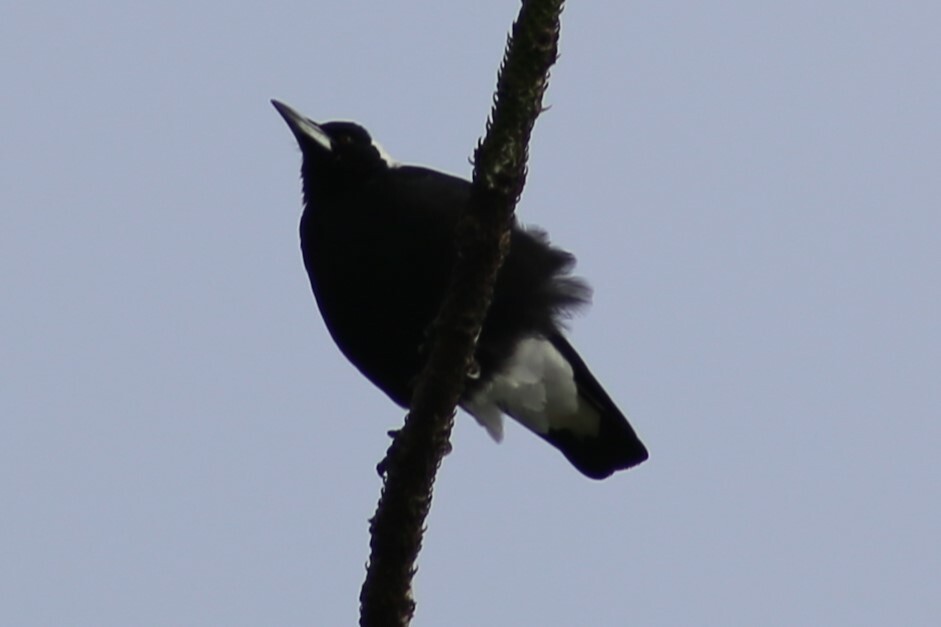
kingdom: Animalia
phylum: Chordata
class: Aves
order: Passeriformes
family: Cracticidae
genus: Gymnorhina
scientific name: Gymnorhina tibicen
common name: Australian magpie
